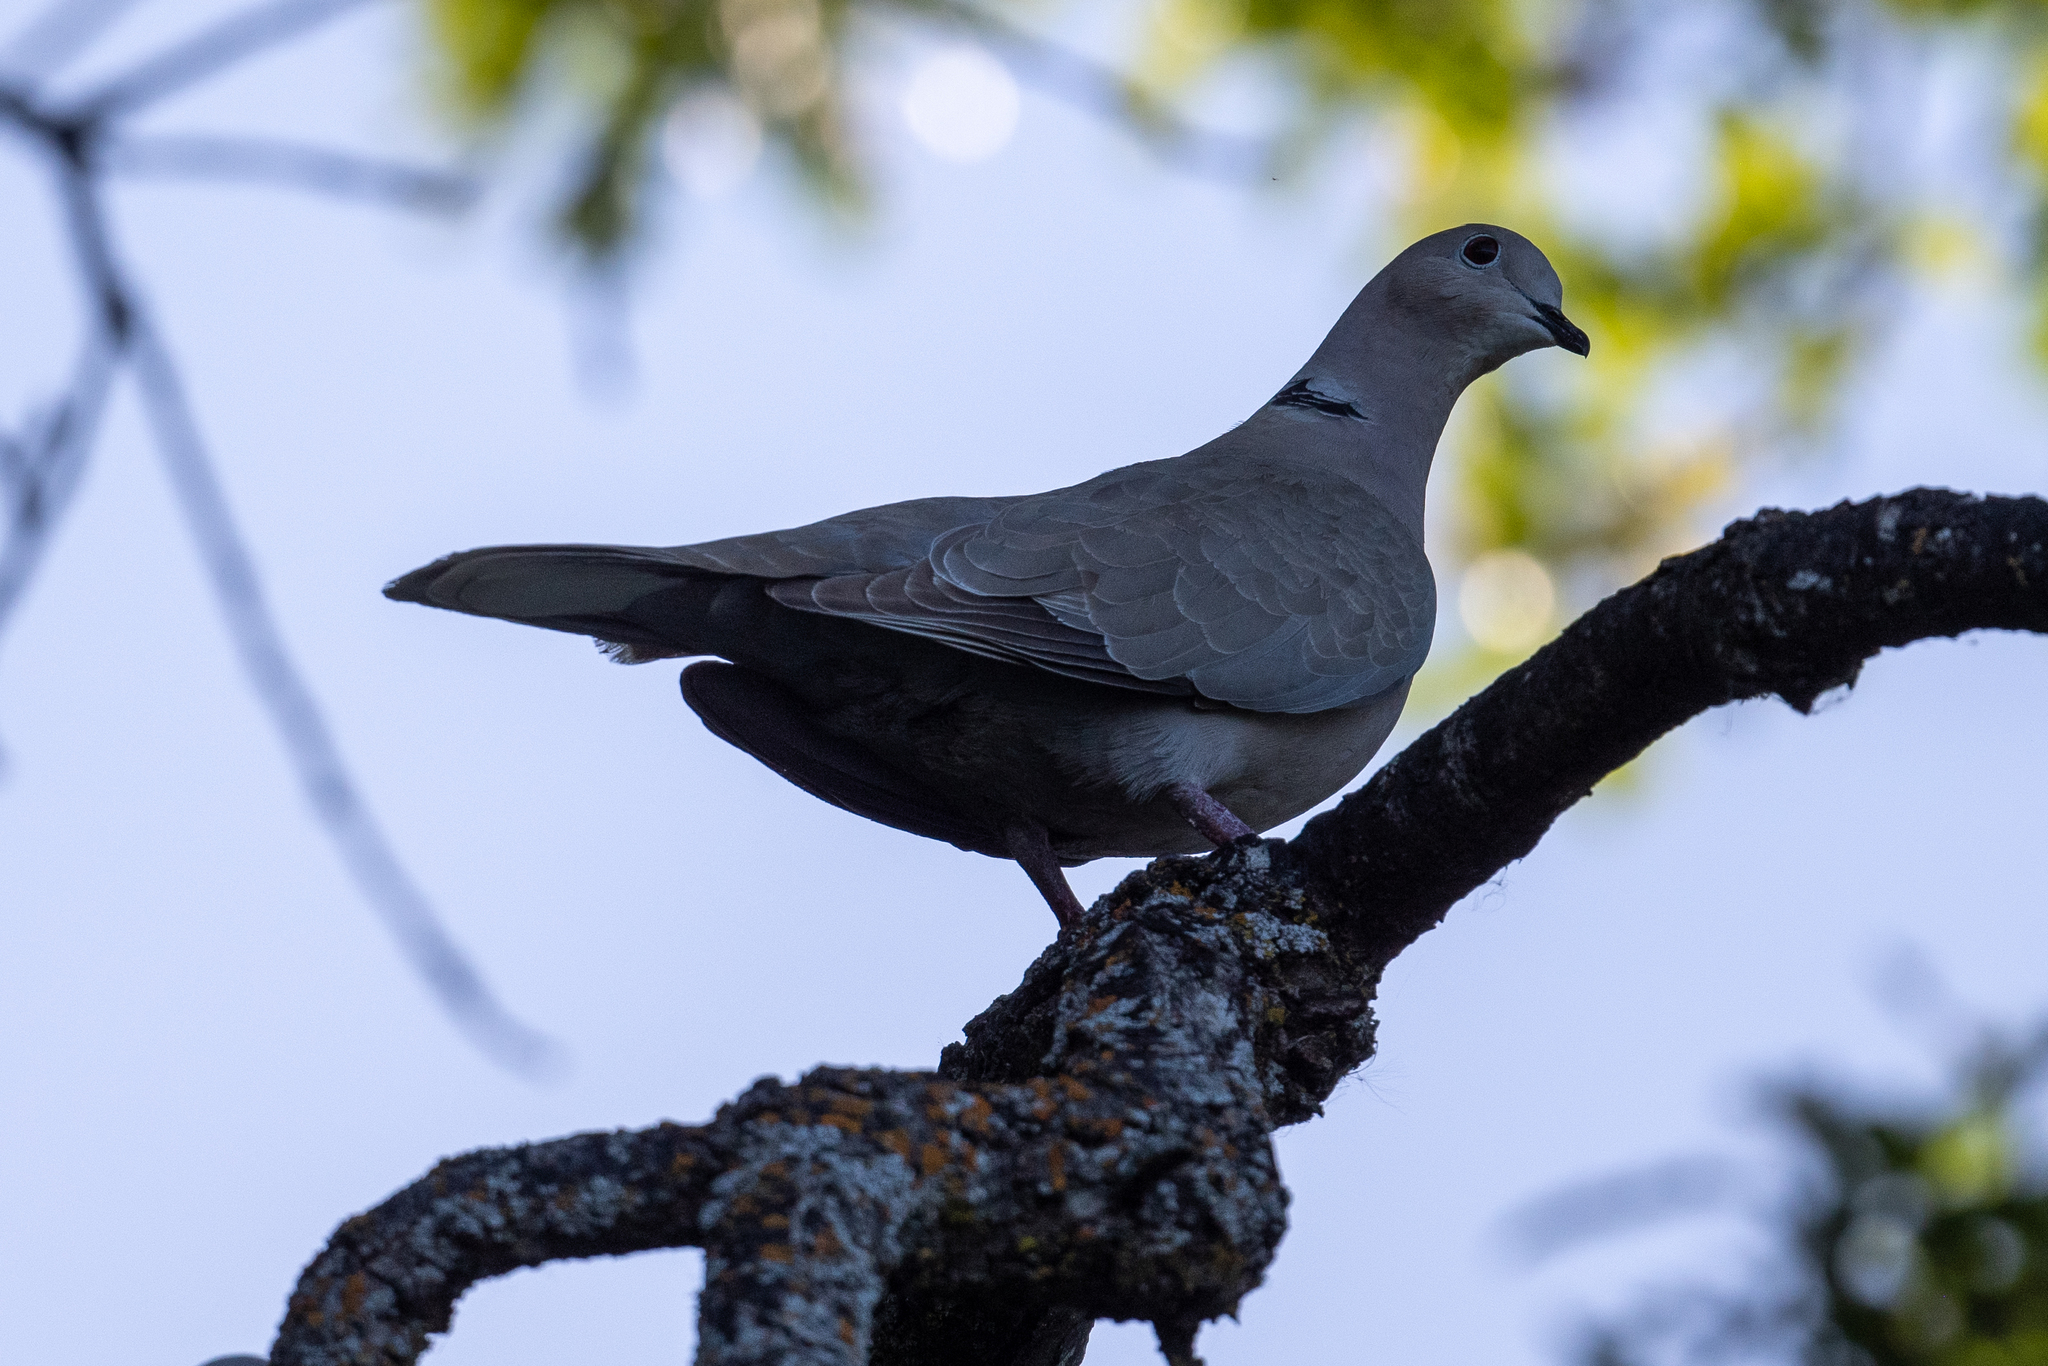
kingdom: Animalia
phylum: Chordata
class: Aves
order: Columbiformes
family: Columbidae
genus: Streptopelia
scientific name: Streptopelia decaocto
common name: Eurasian collared dove
